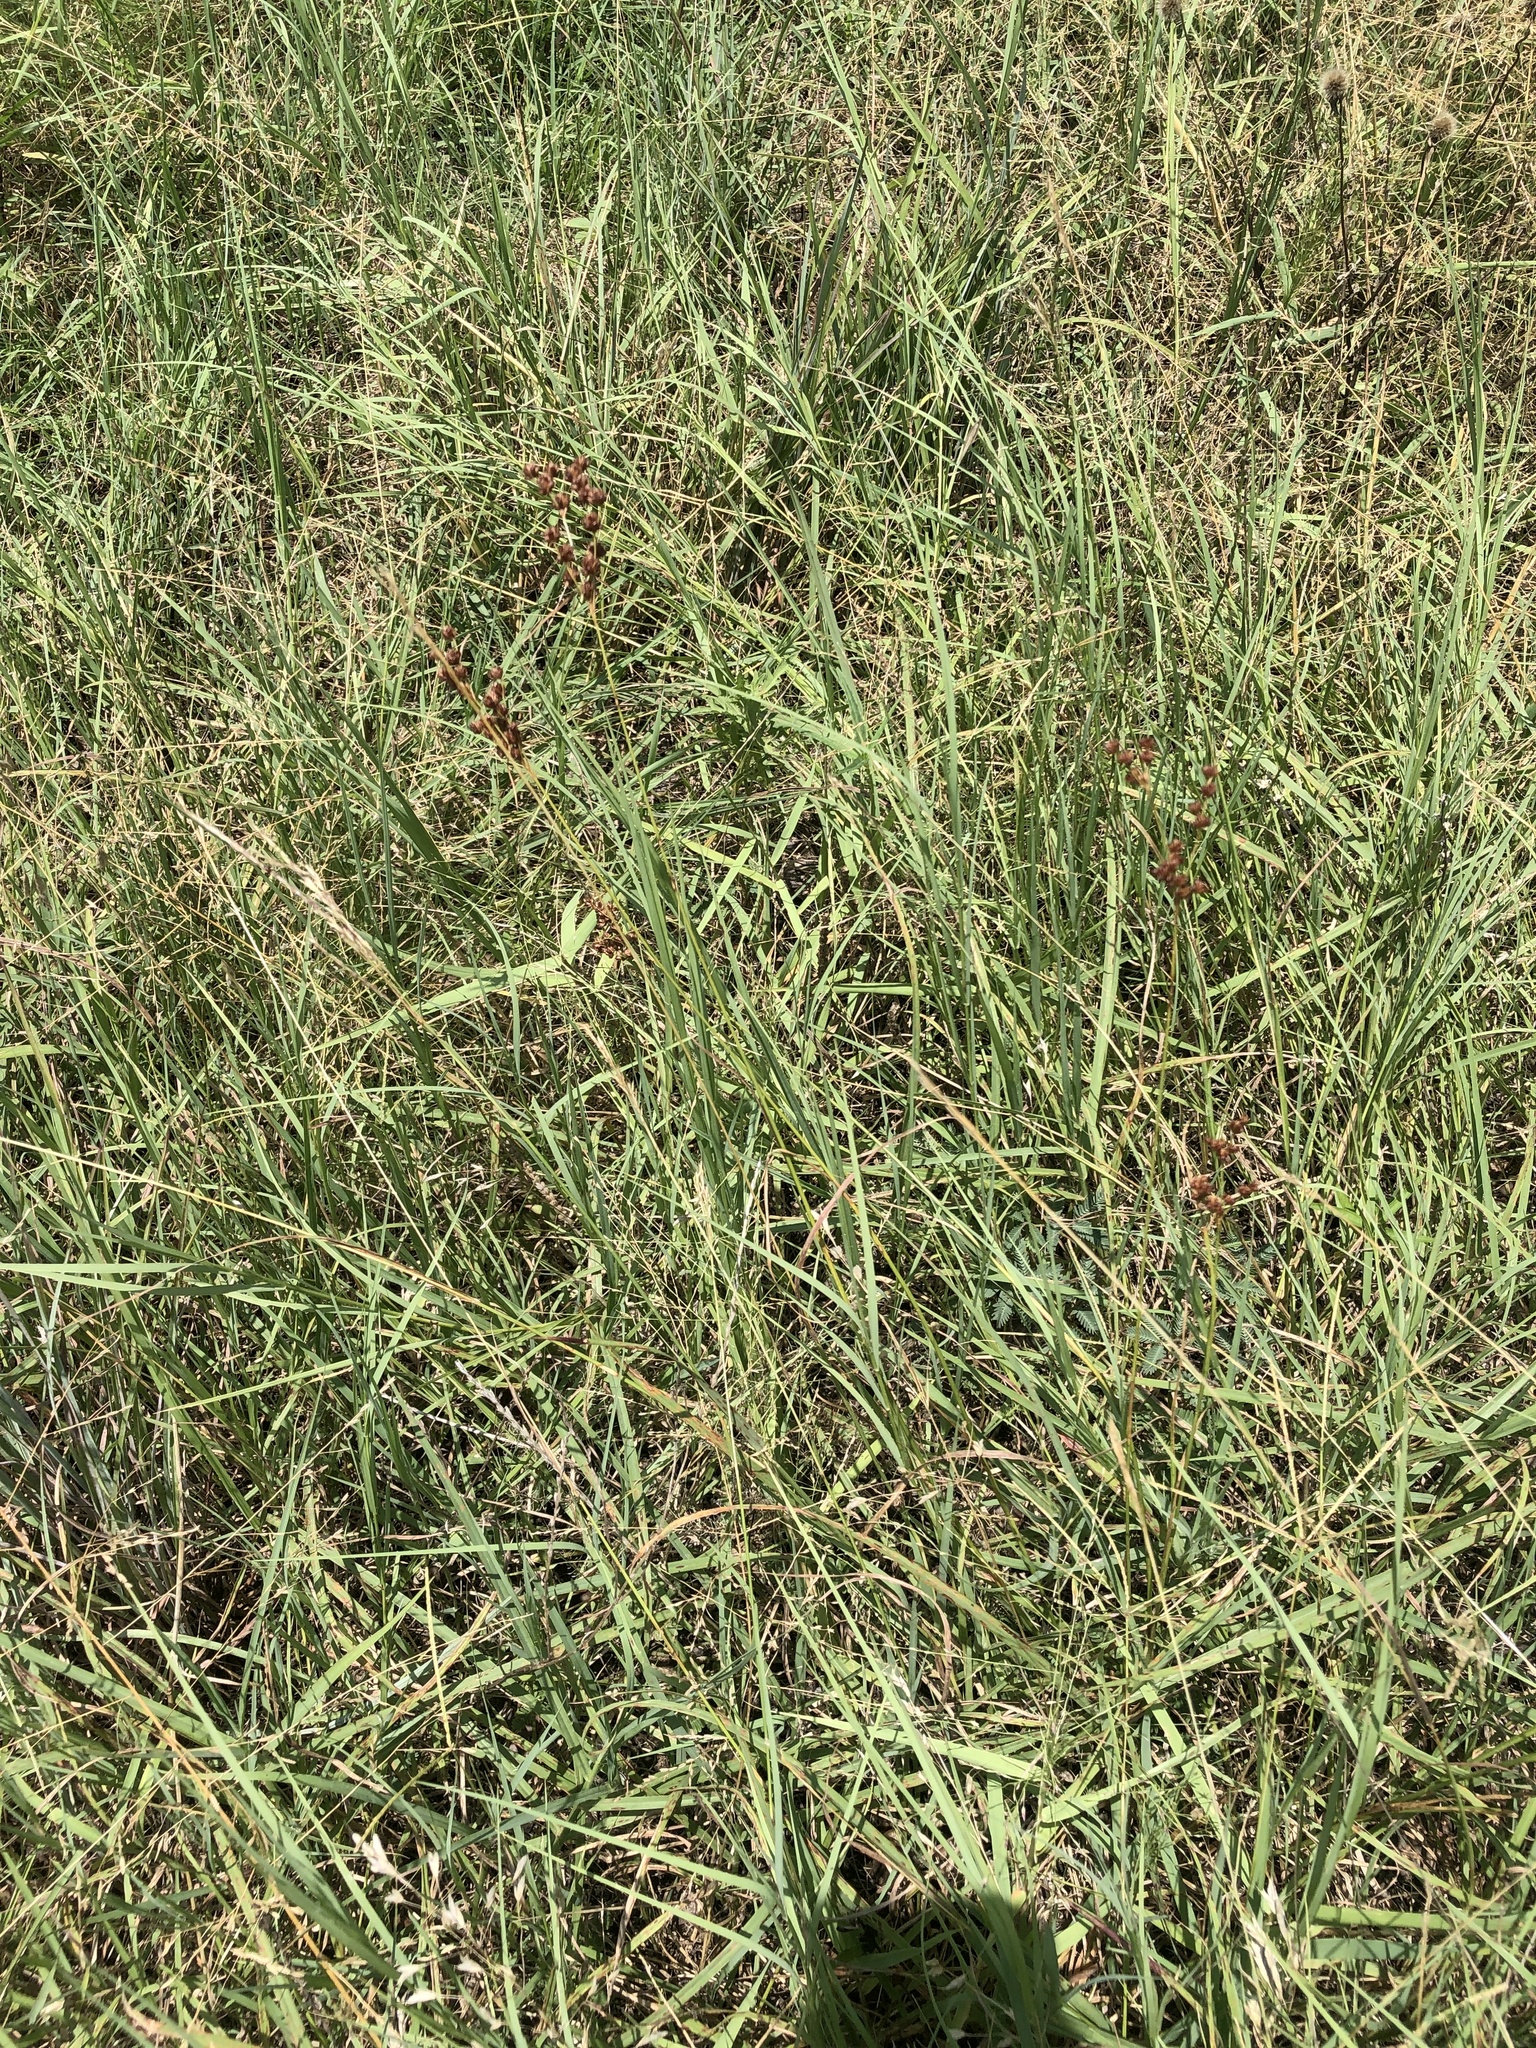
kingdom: Plantae
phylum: Tracheophyta
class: Liliopsida
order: Poales
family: Juncaceae
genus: Juncus
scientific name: Juncus marginatus
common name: Grass-leaf rush
